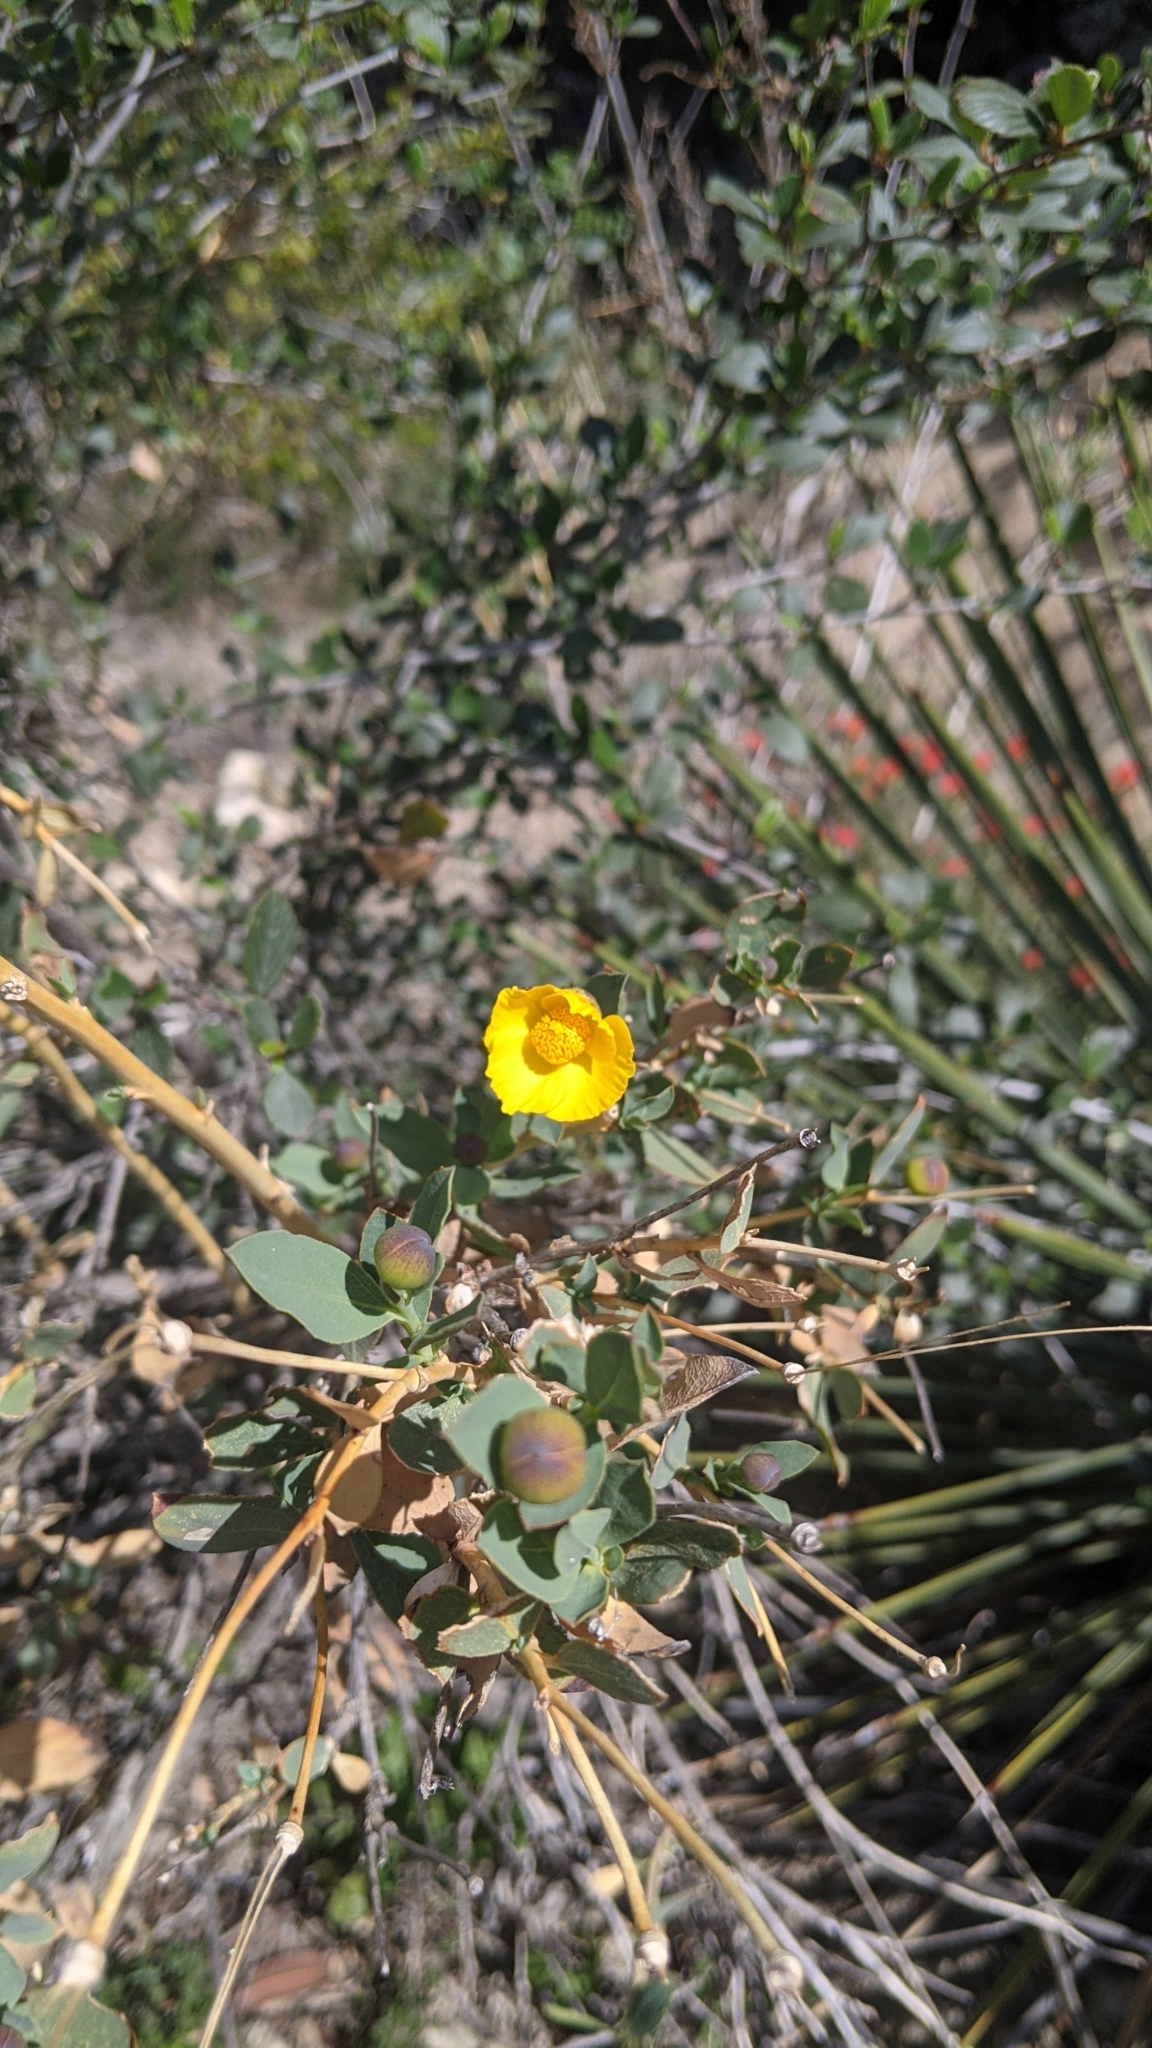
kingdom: Plantae
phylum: Tracheophyta
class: Magnoliopsida
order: Ranunculales
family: Papaveraceae
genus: Dendromecon
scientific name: Dendromecon rigida
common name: Tree poppy
